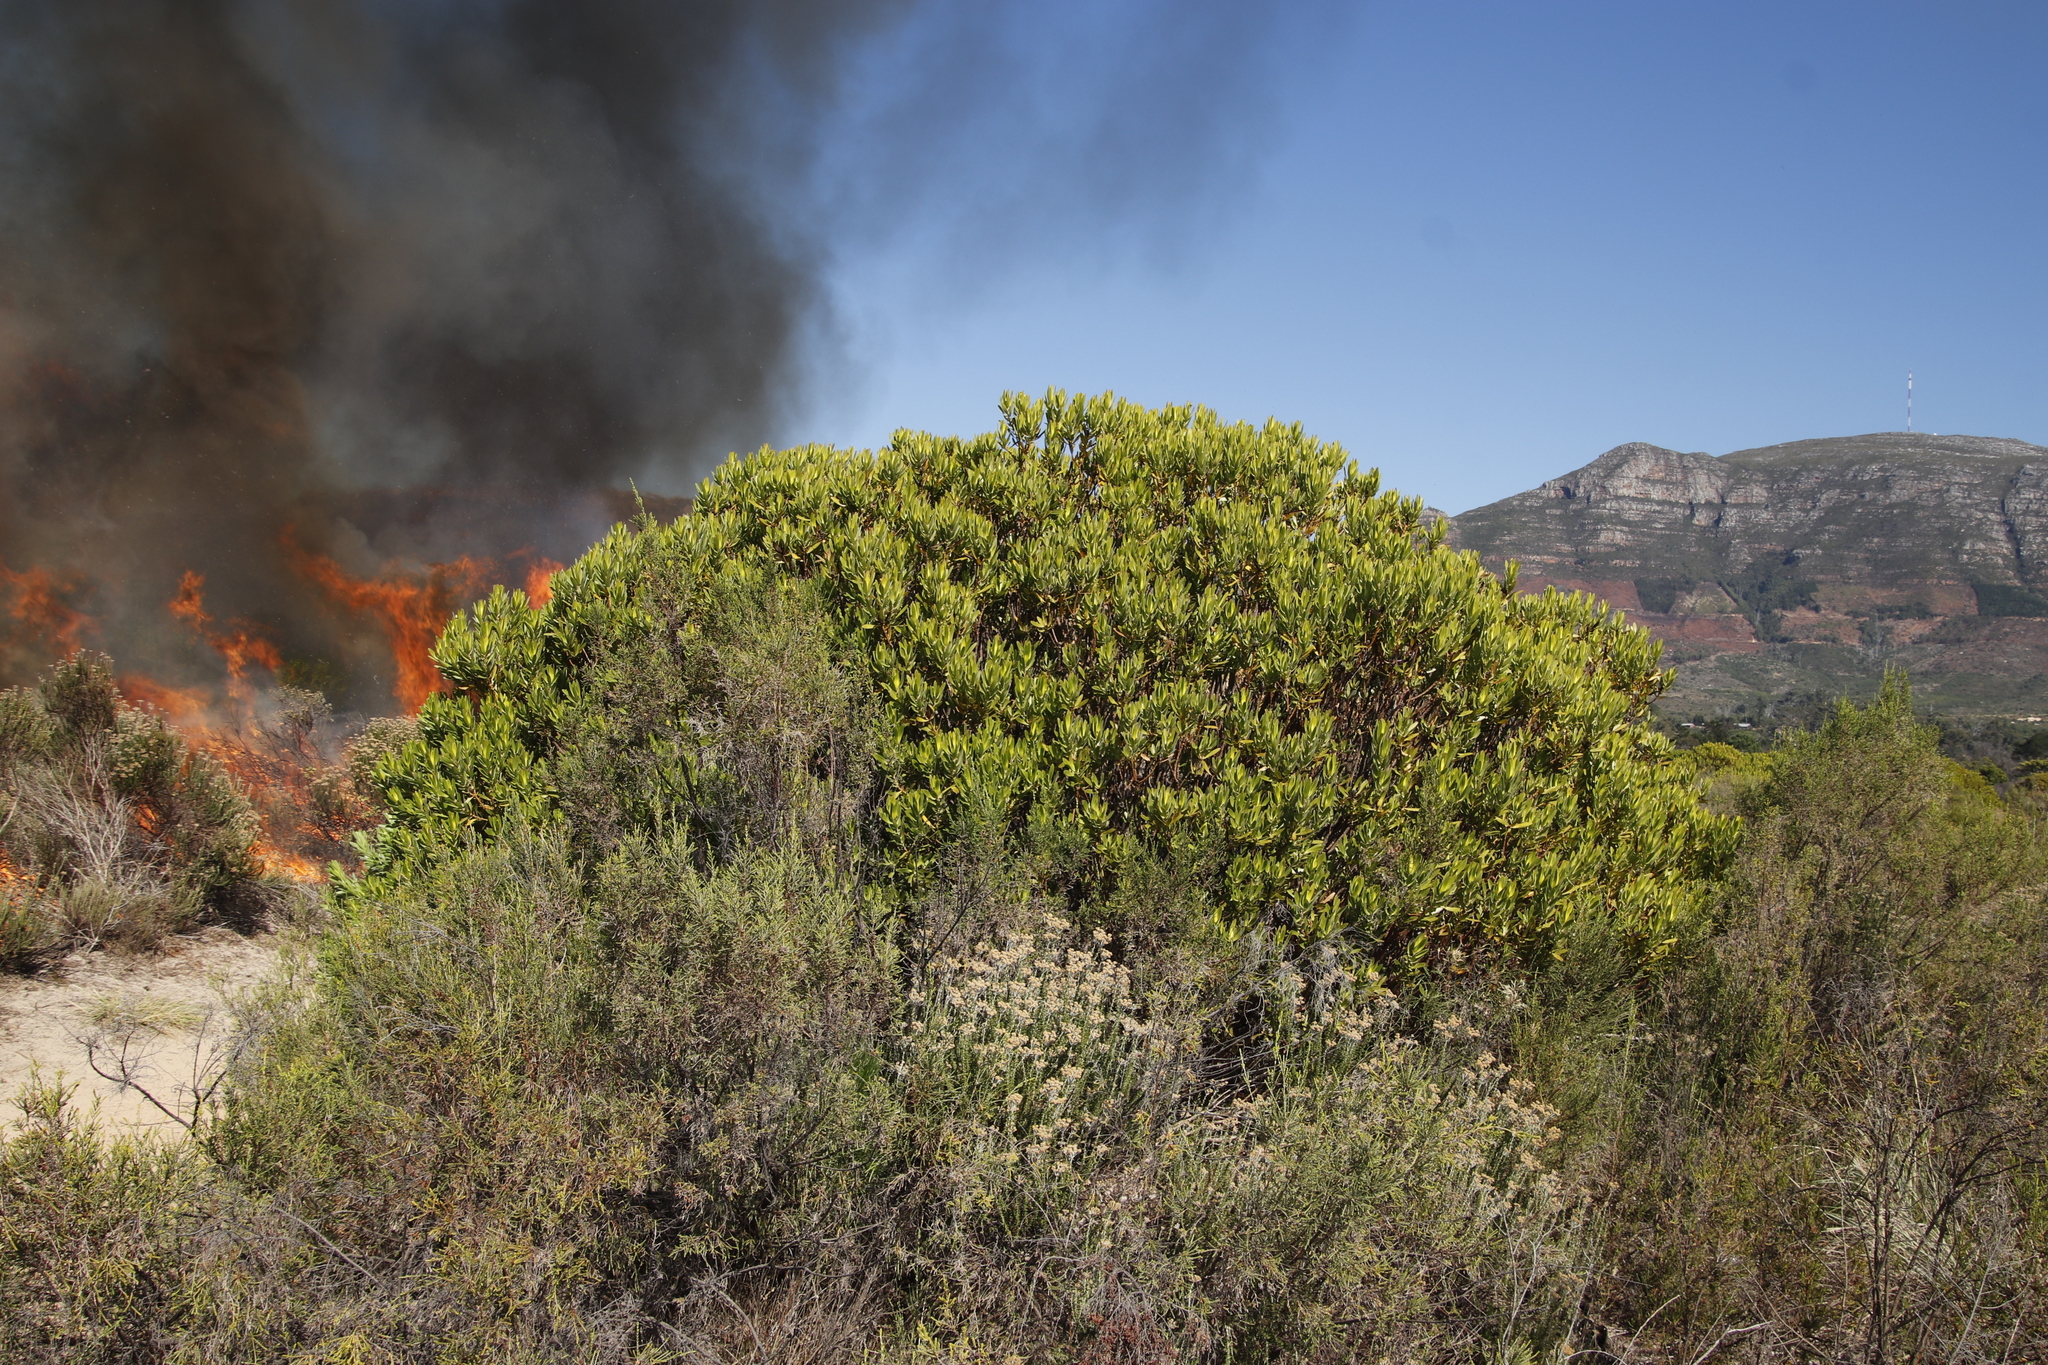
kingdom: Plantae
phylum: Tracheophyta
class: Magnoliopsida
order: Proteales
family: Proteaceae
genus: Leucadendron
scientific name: Leucadendron laureolum
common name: Golden sunshinebush
